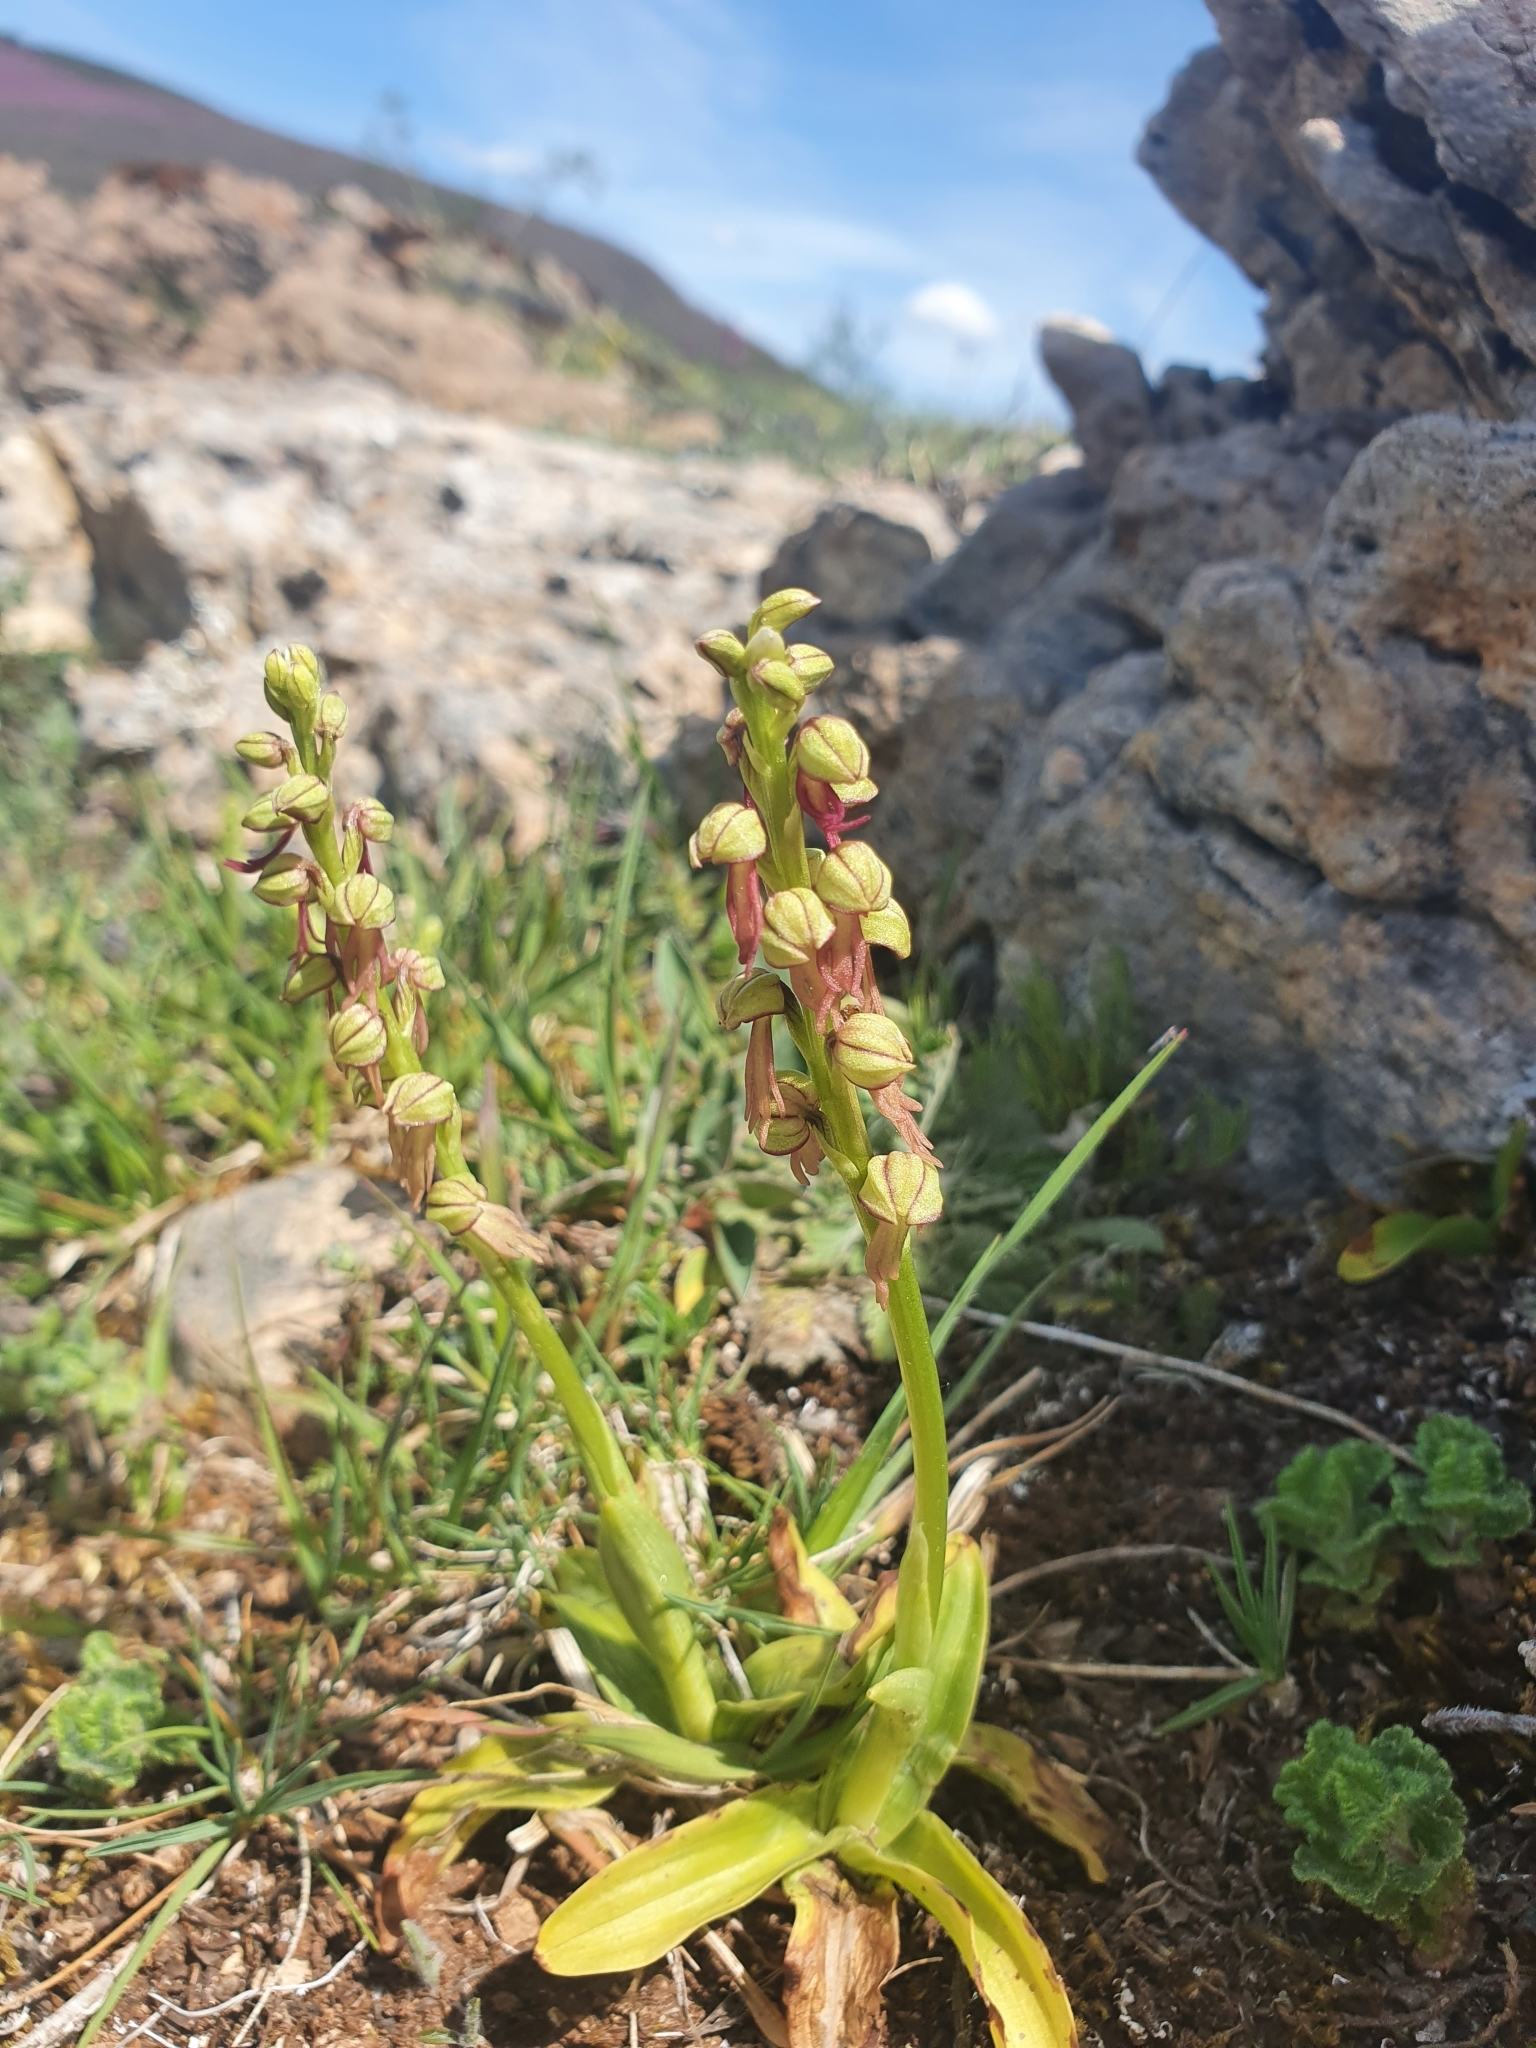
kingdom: Plantae
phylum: Tracheophyta
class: Liliopsida
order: Asparagales
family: Orchidaceae
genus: Orchis
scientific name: Orchis anthropophora
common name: Man orchid
